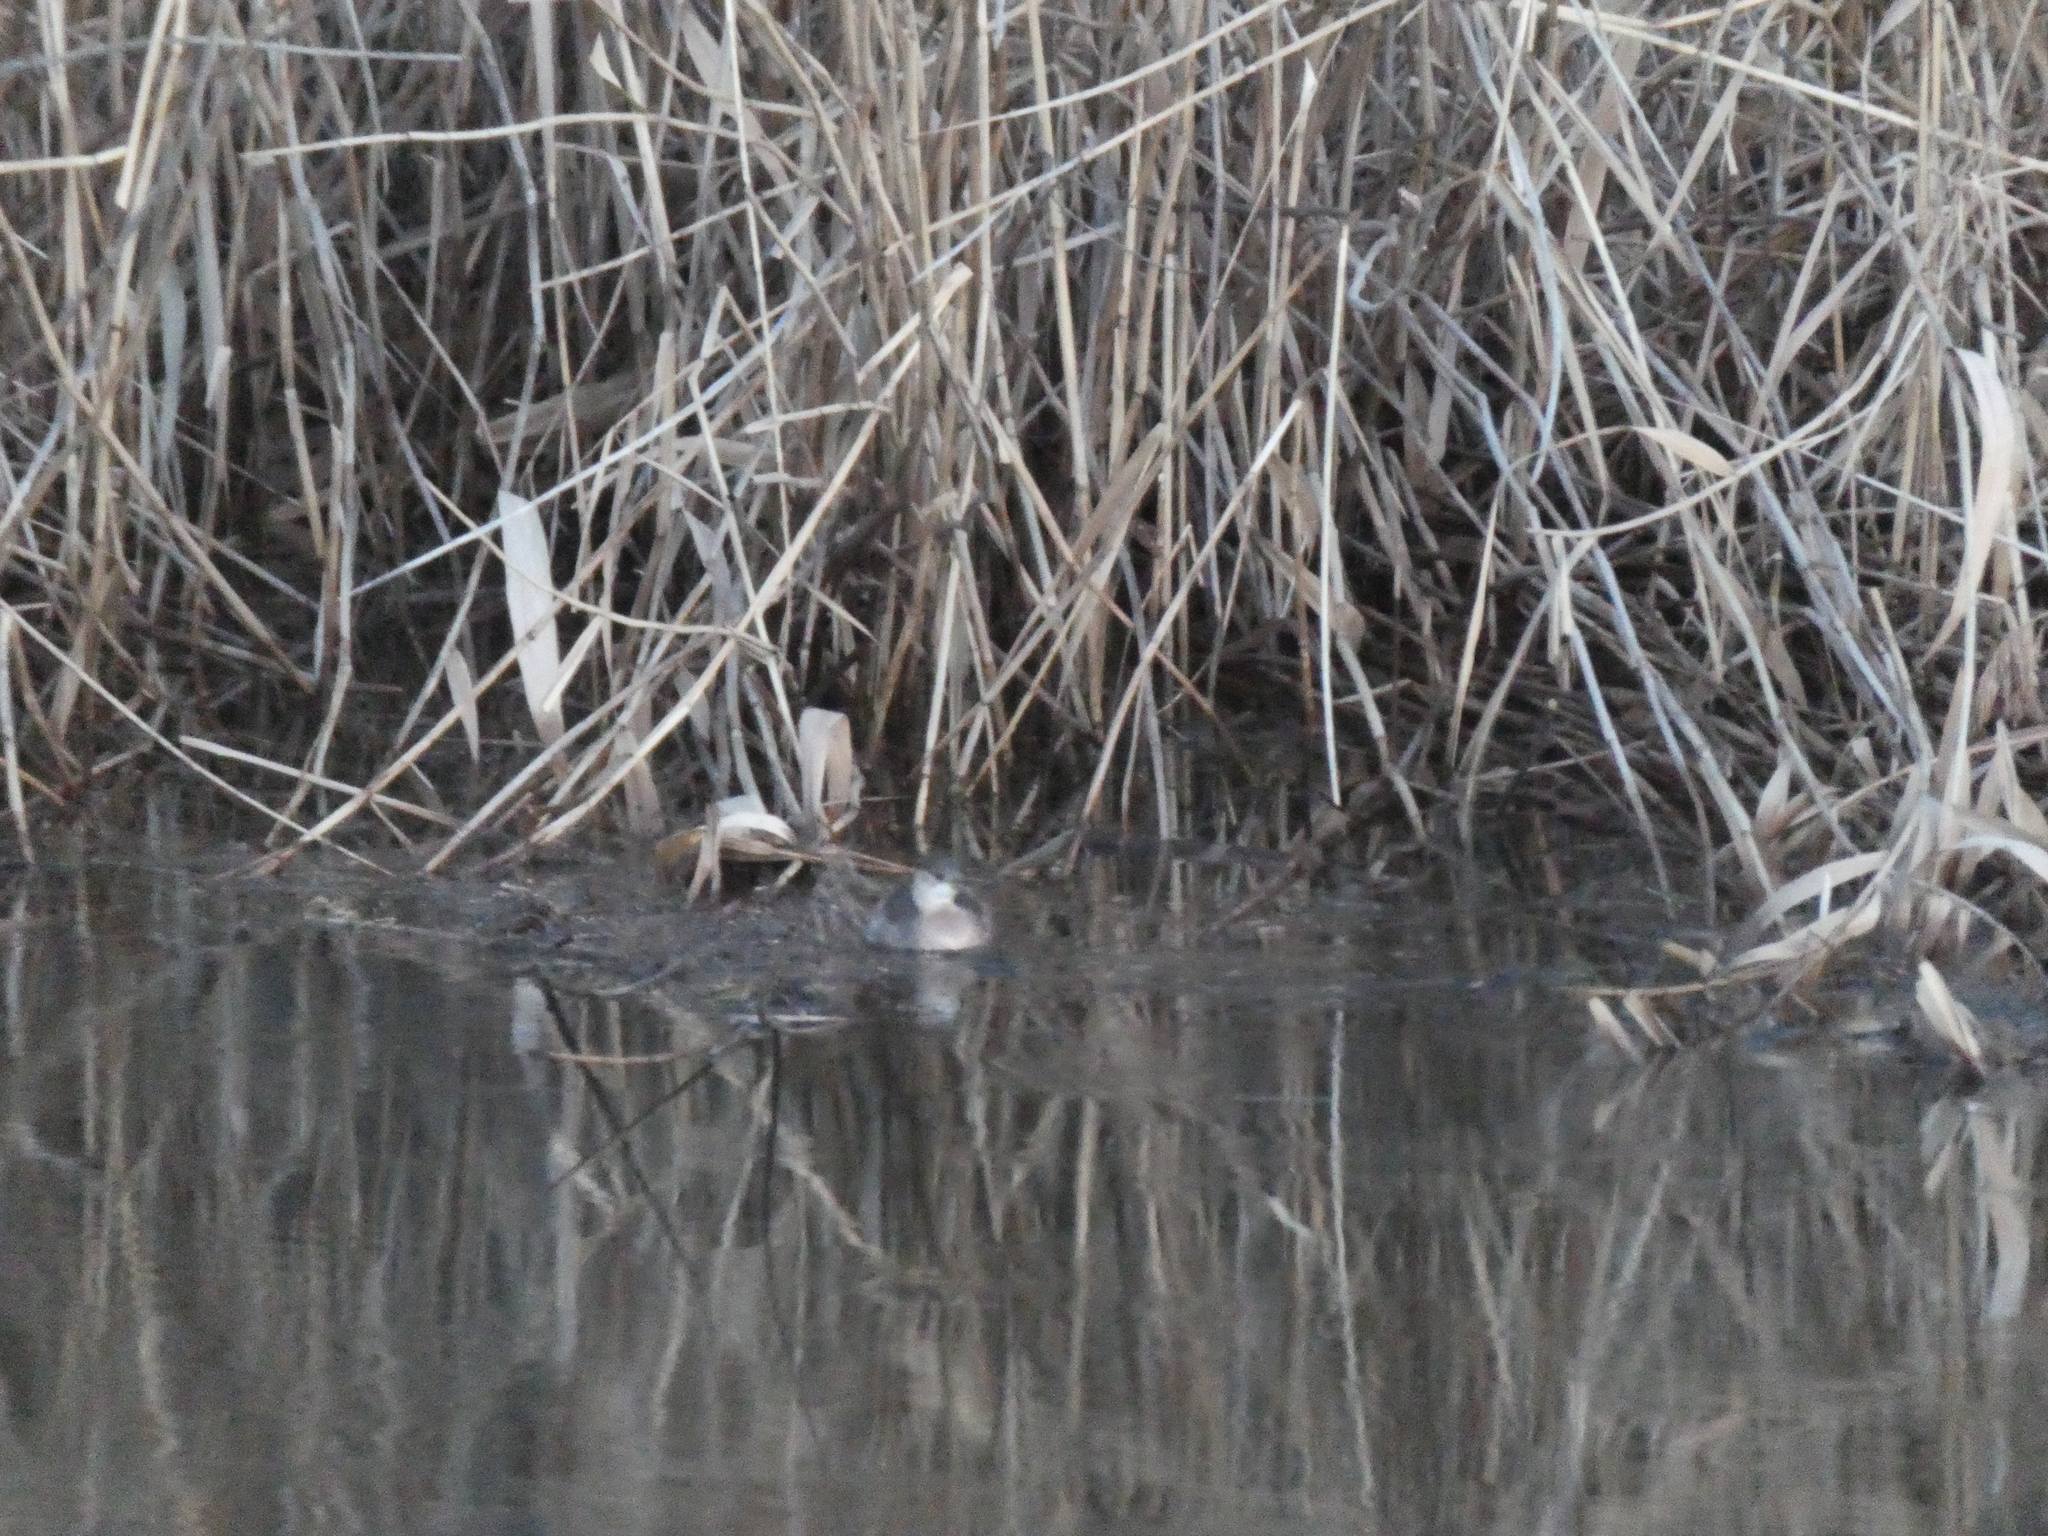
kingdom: Animalia
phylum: Chordata
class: Aves
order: Podicipediformes
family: Podicipedidae
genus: Tachybaptus
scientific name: Tachybaptus ruficollis
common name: Little grebe
